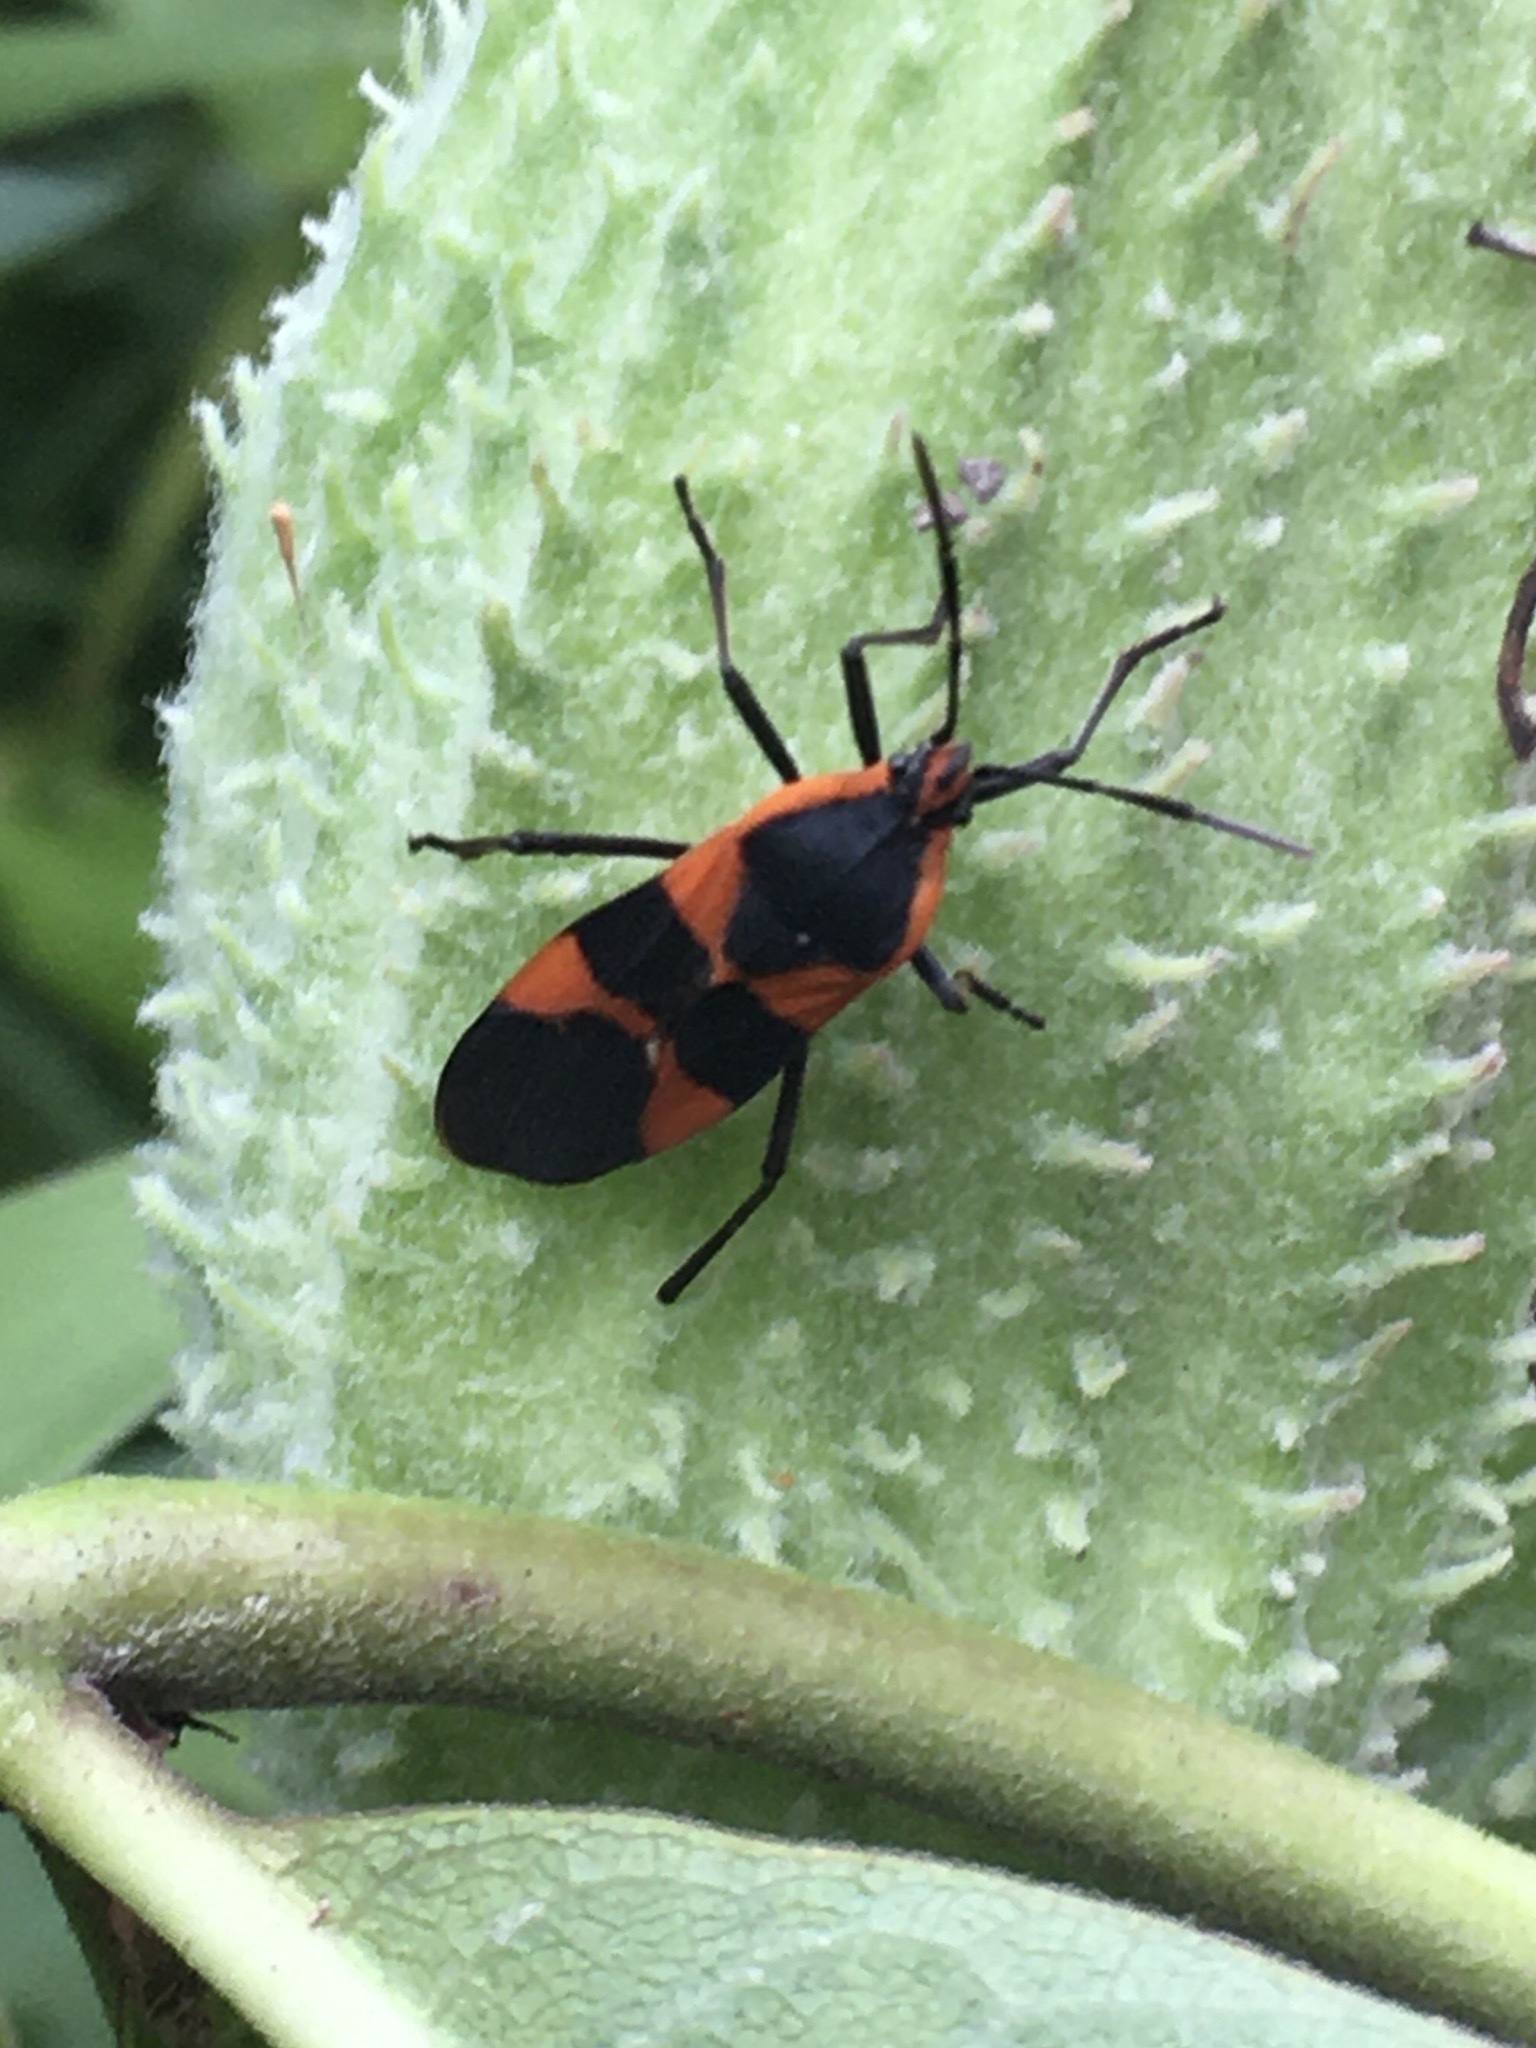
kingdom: Animalia
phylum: Arthropoda
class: Insecta
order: Hemiptera
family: Lygaeidae
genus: Oncopeltus
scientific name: Oncopeltus fasciatus
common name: Large milkweed bug
